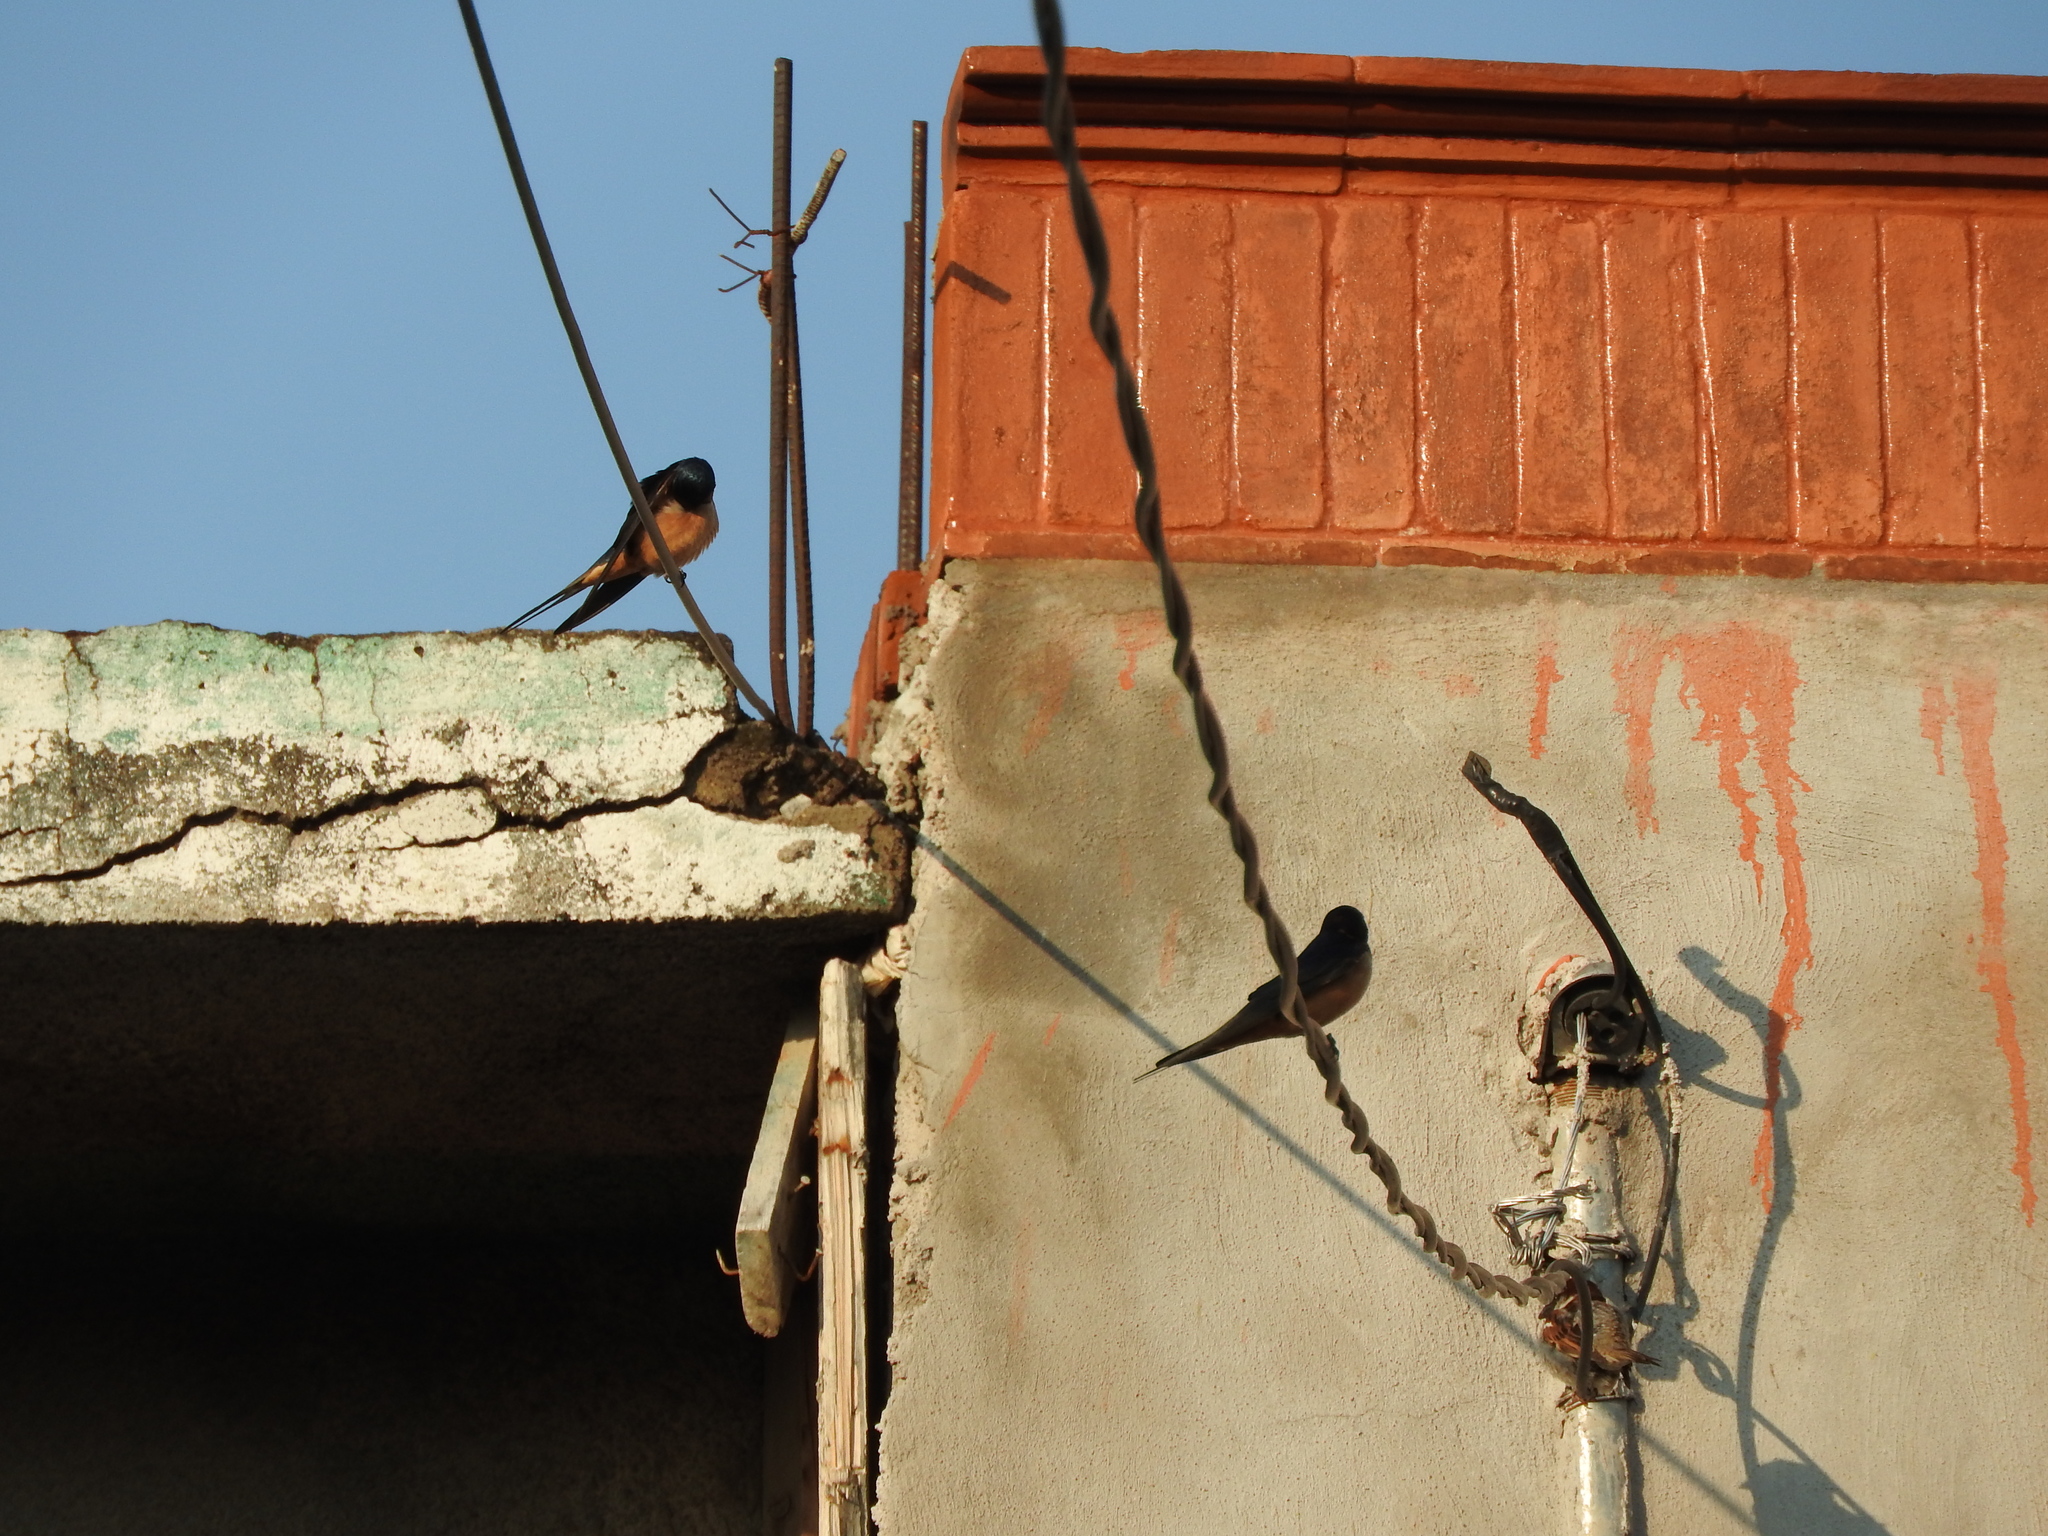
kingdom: Animalia
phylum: Chordata
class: Aves
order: Passeriformes
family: Hirundinidae
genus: Hirundo
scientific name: Hirundo rustica
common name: Barn swallow
